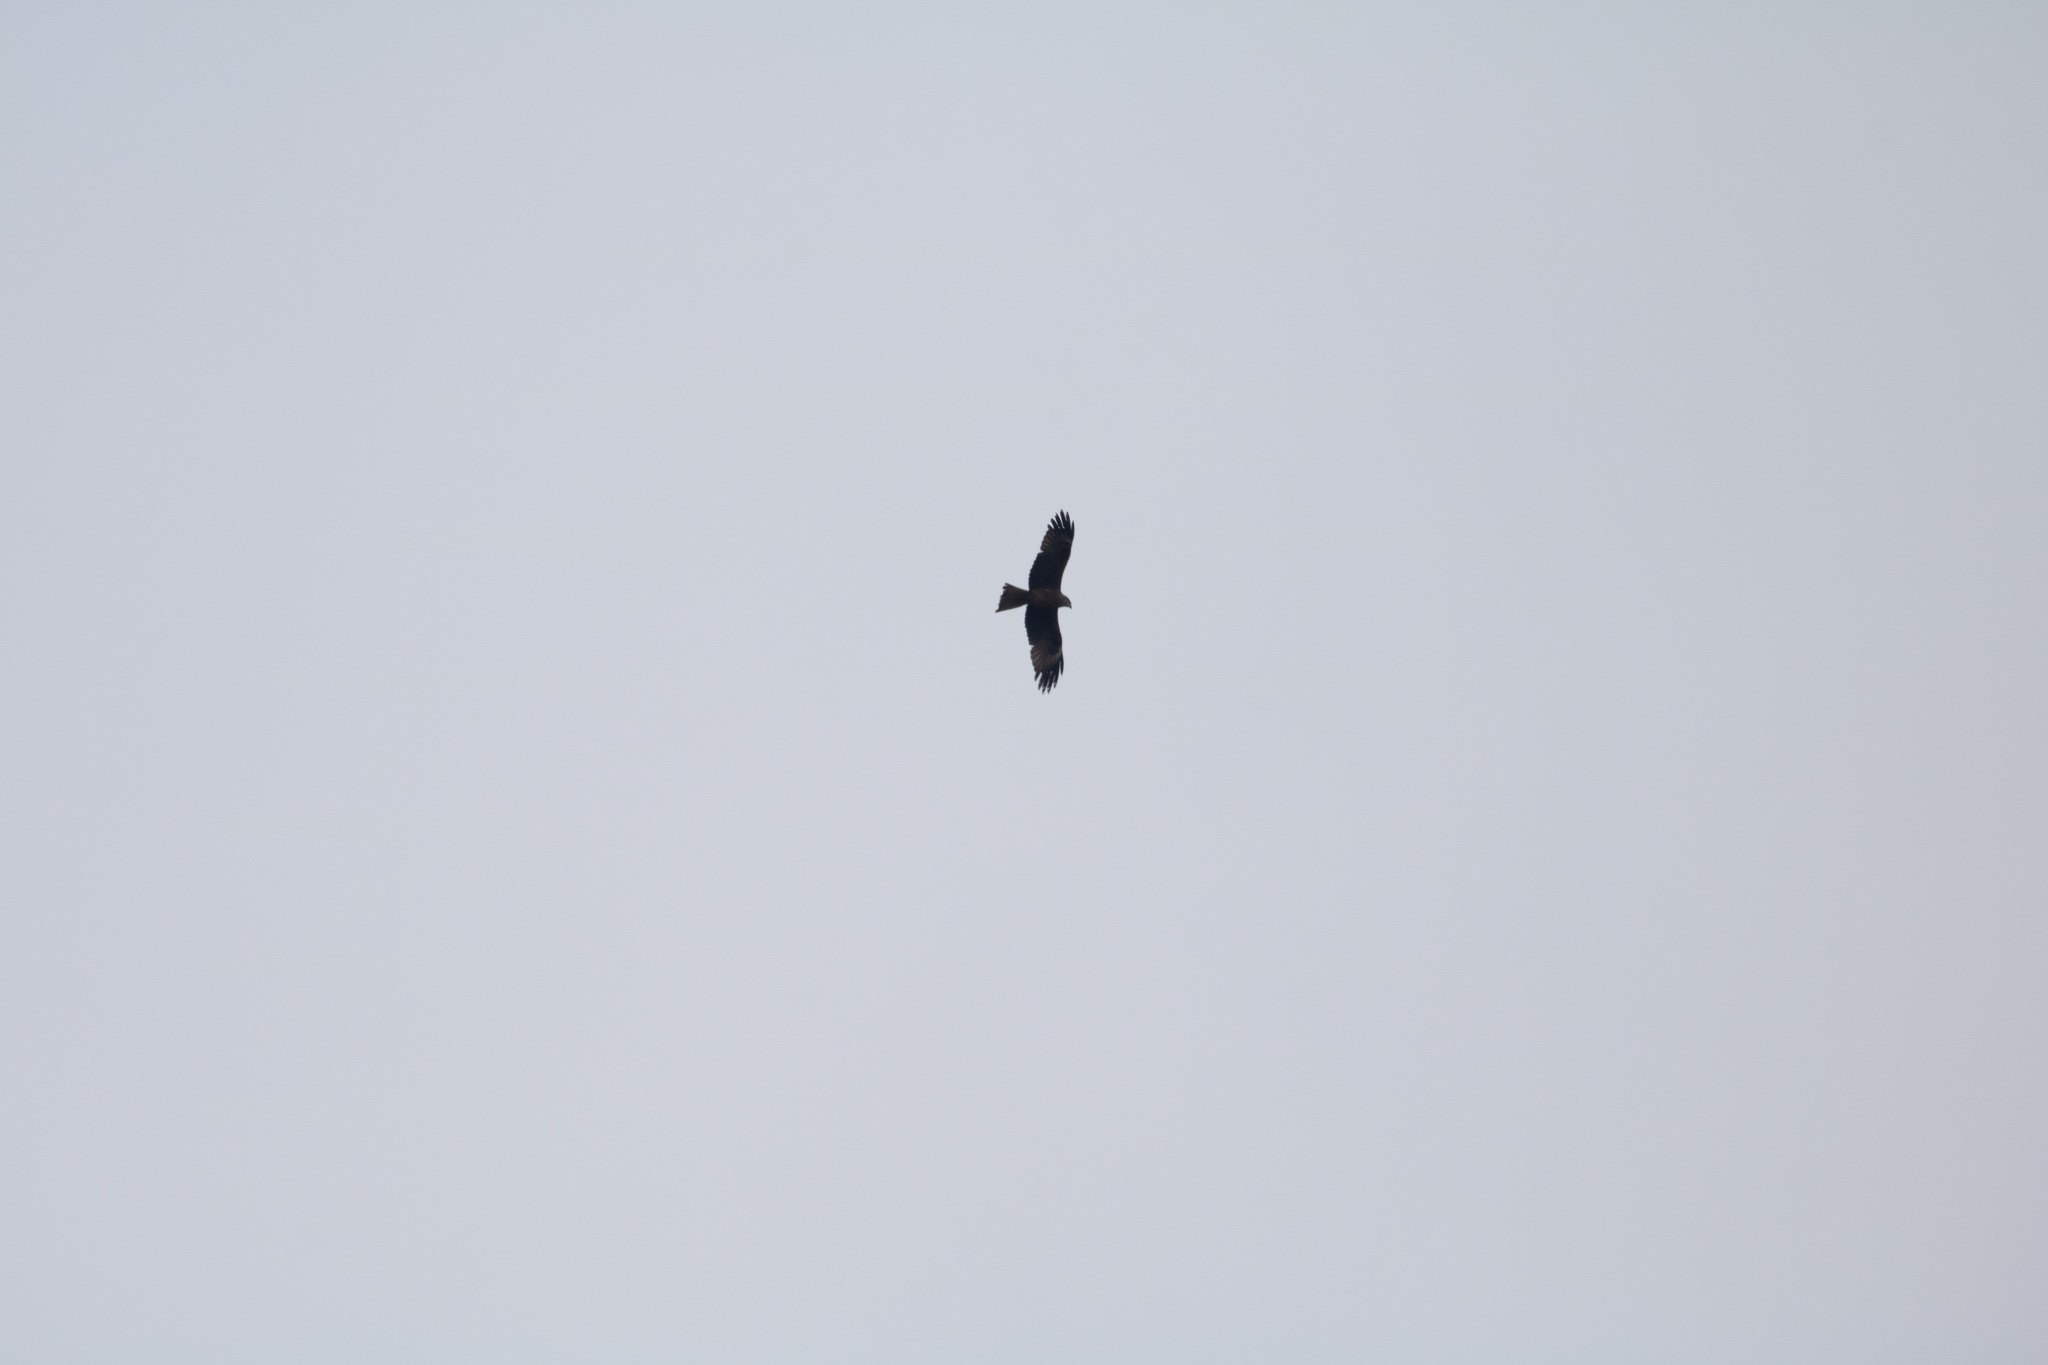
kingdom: Animalia
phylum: Chordata
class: Aves
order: Accipitriformes
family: Accipitridae
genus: Milvus
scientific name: Milvus migrans
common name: Black kite
